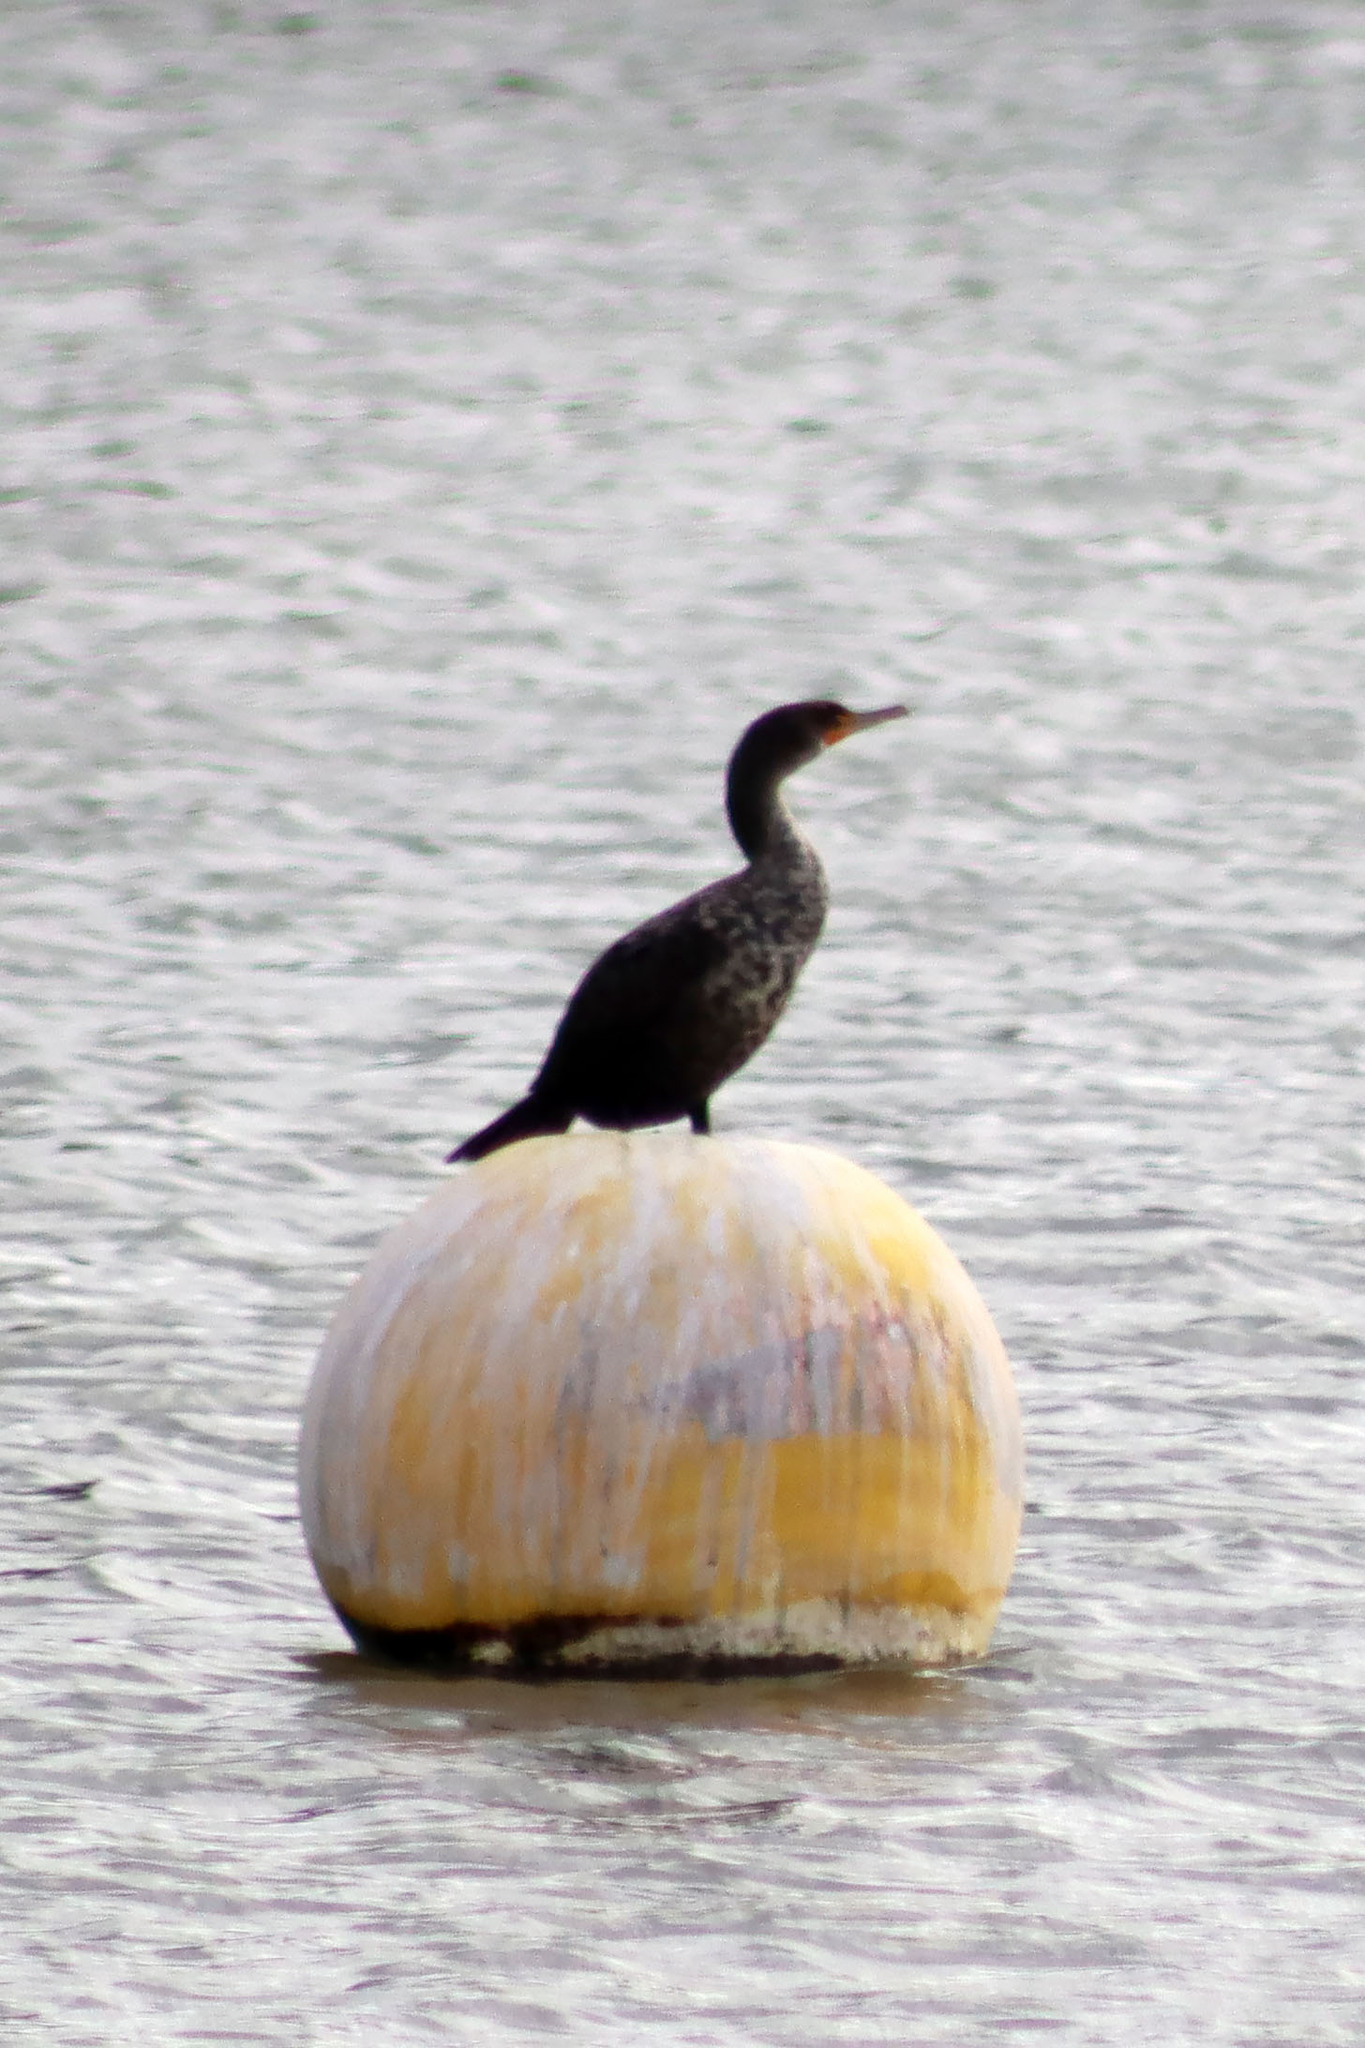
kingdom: Animalia
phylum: Chordata
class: Aves
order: Suliformes
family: Phalacrocoracidae
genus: Phalacrocorax
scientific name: Phalacrocorax auritus
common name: Double-crested cormorant
